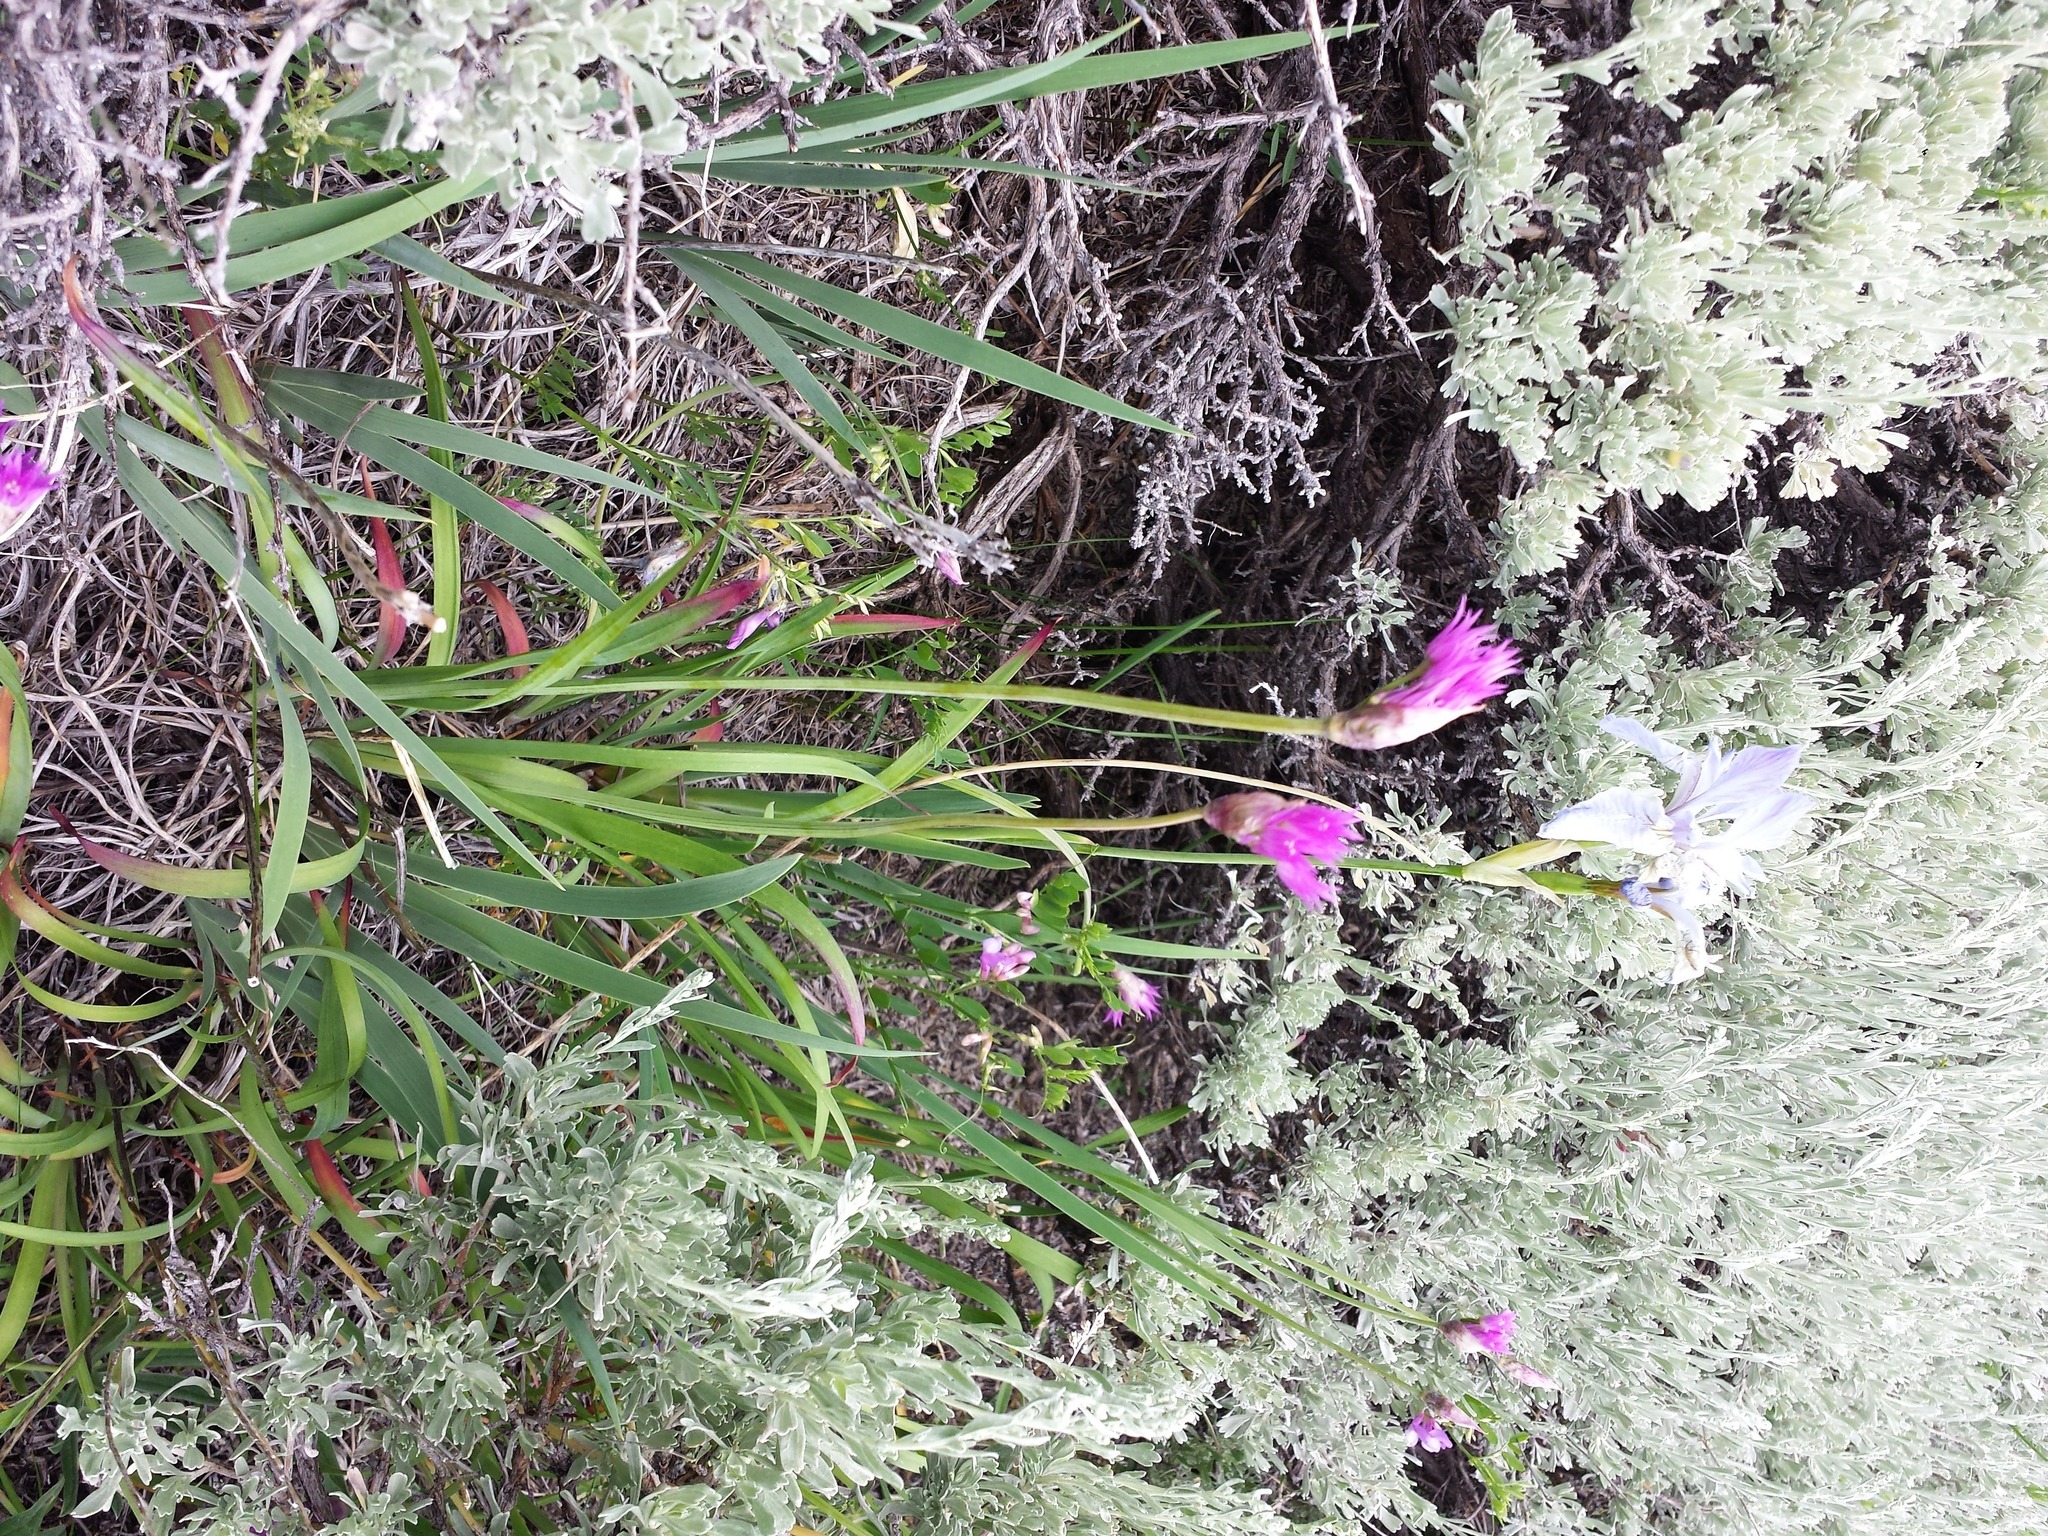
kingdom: Plantae
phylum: Tracheophyta
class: Liliopsida
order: Asparagales
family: Amaryllidaceae
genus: Allium
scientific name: Allium brevistylum
